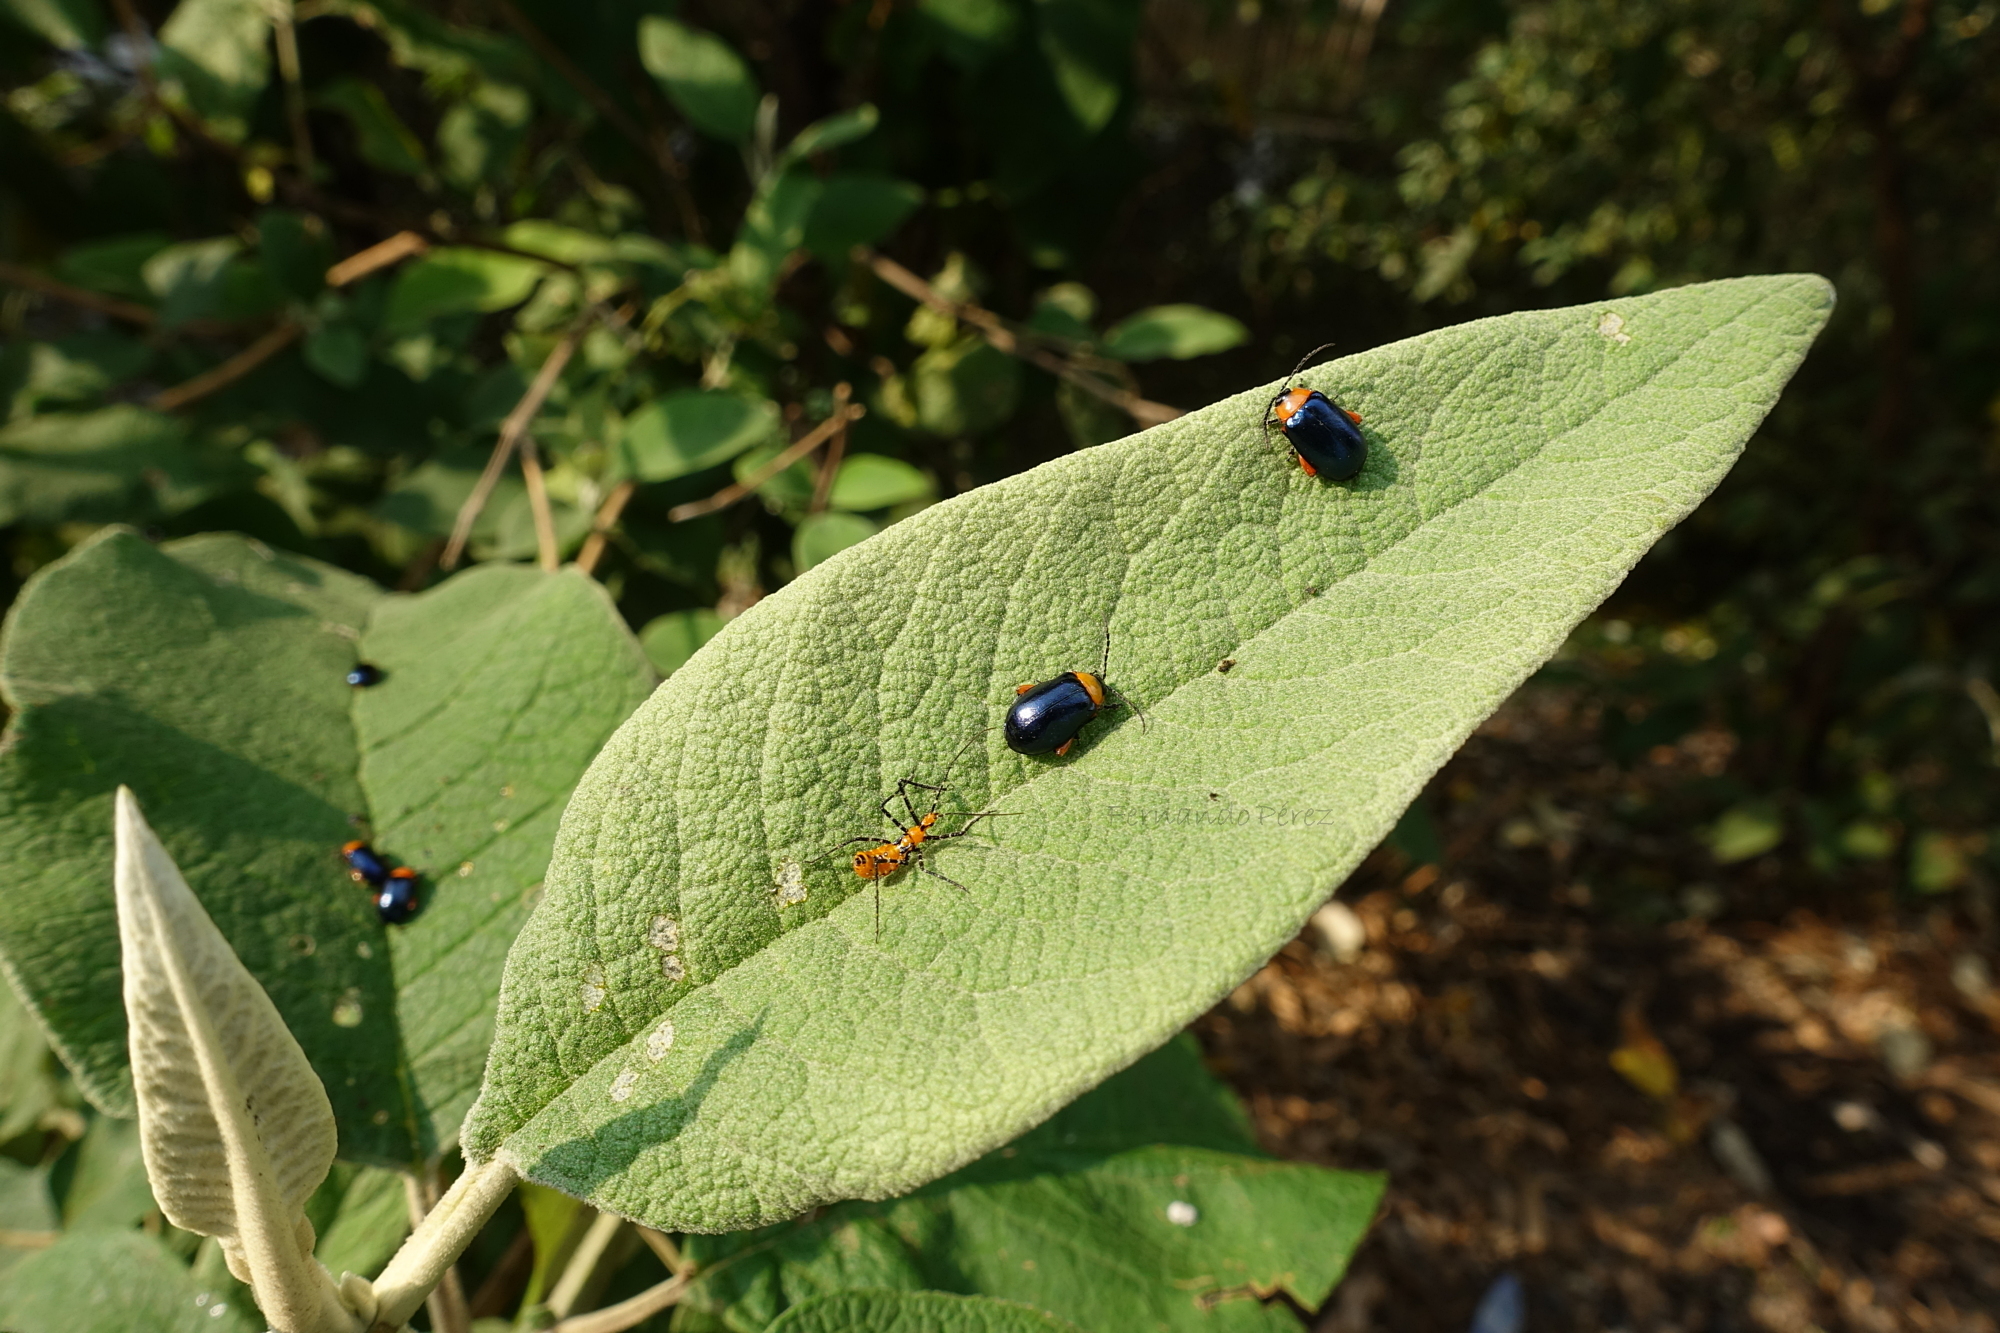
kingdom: Animalia
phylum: Arthropoda
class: Insecta
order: Hemiptera
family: Reduviidae
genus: Zelus
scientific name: Zelus longipes
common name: Milkweed assassin bug
